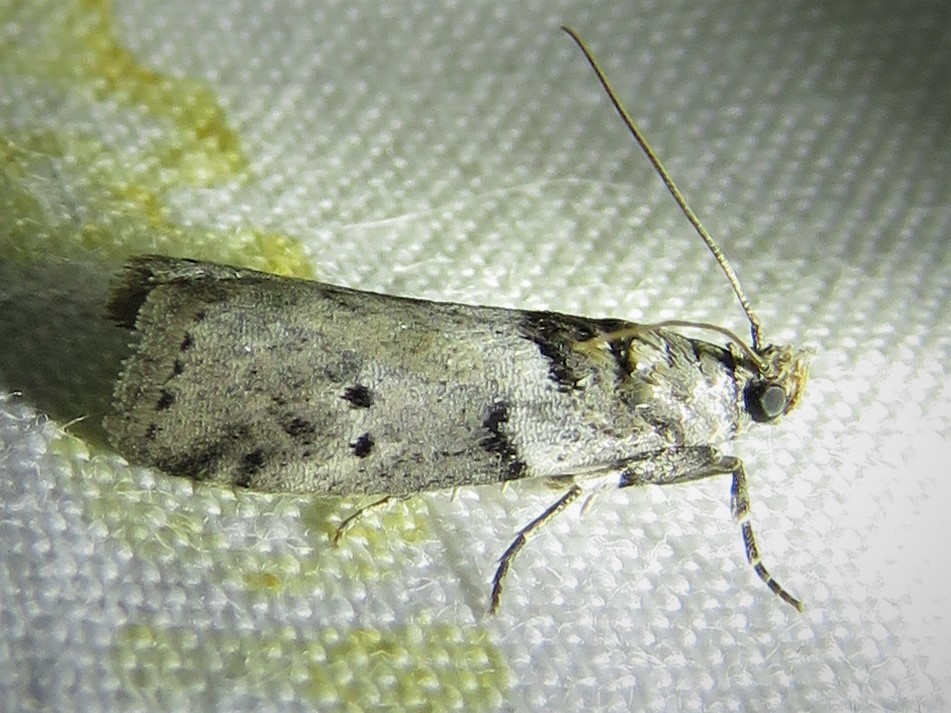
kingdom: Animalia
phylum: Arthropoda
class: Insecta
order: Lepidoptera
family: Pyralidae
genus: Salebriaria
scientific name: Salebriaria annulosella
